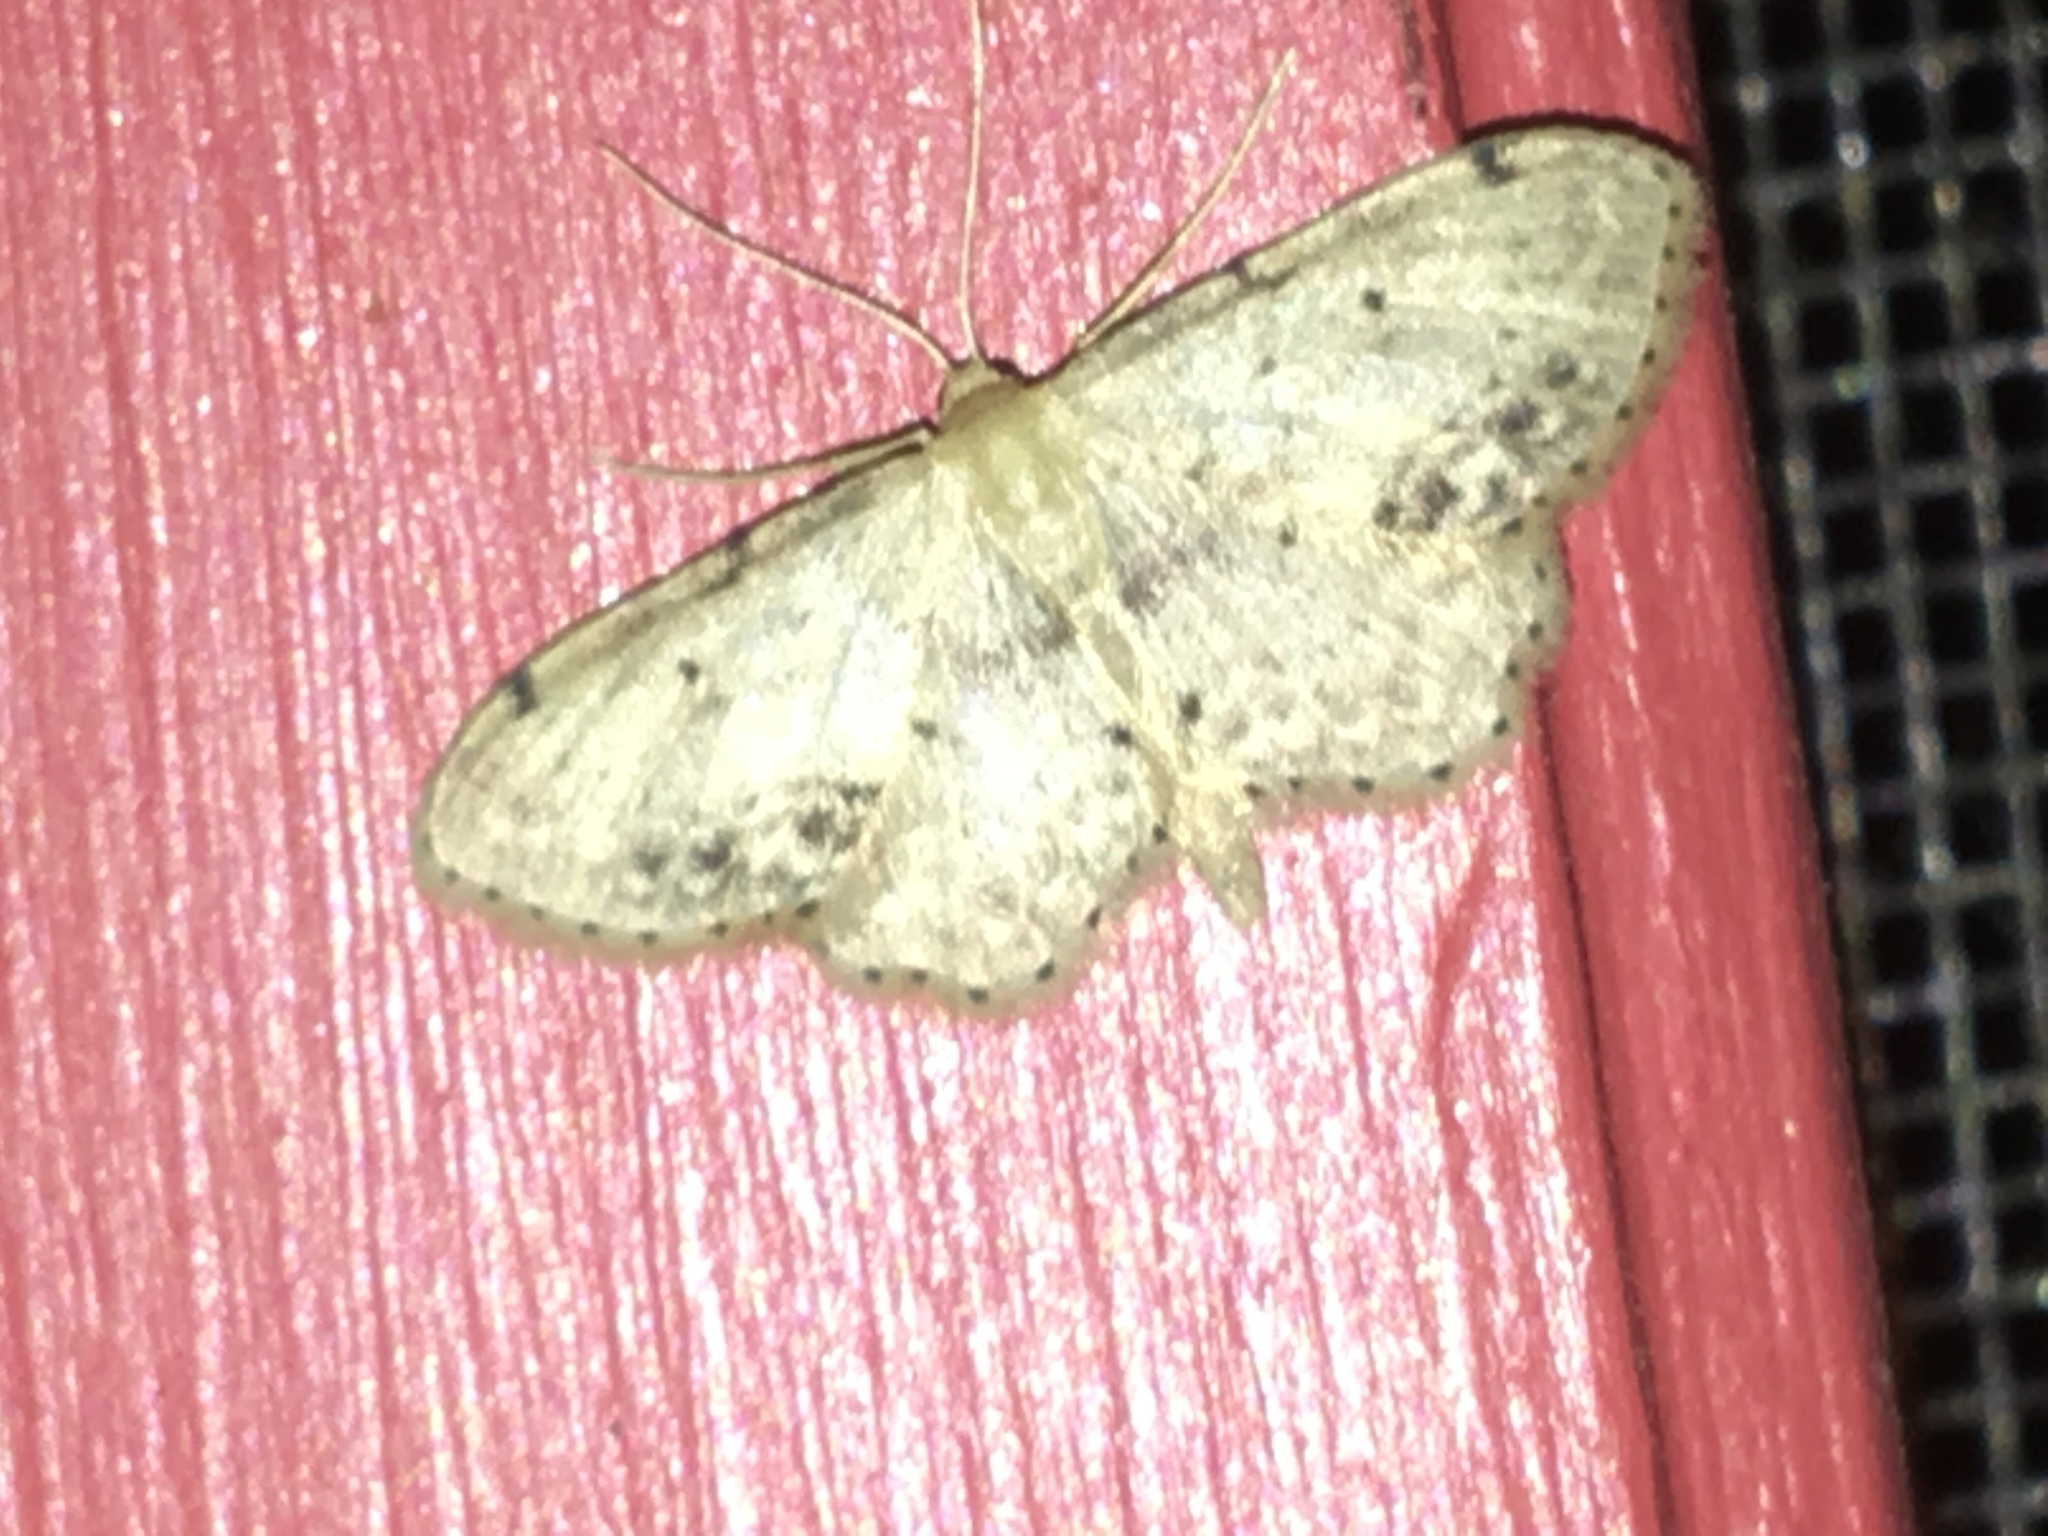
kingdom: Animalia
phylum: Arthropoda
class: Insecta
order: Lepidoptera
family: Geometridae
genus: Idaea
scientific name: Idaea dimidiata
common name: Single-dotted wave
